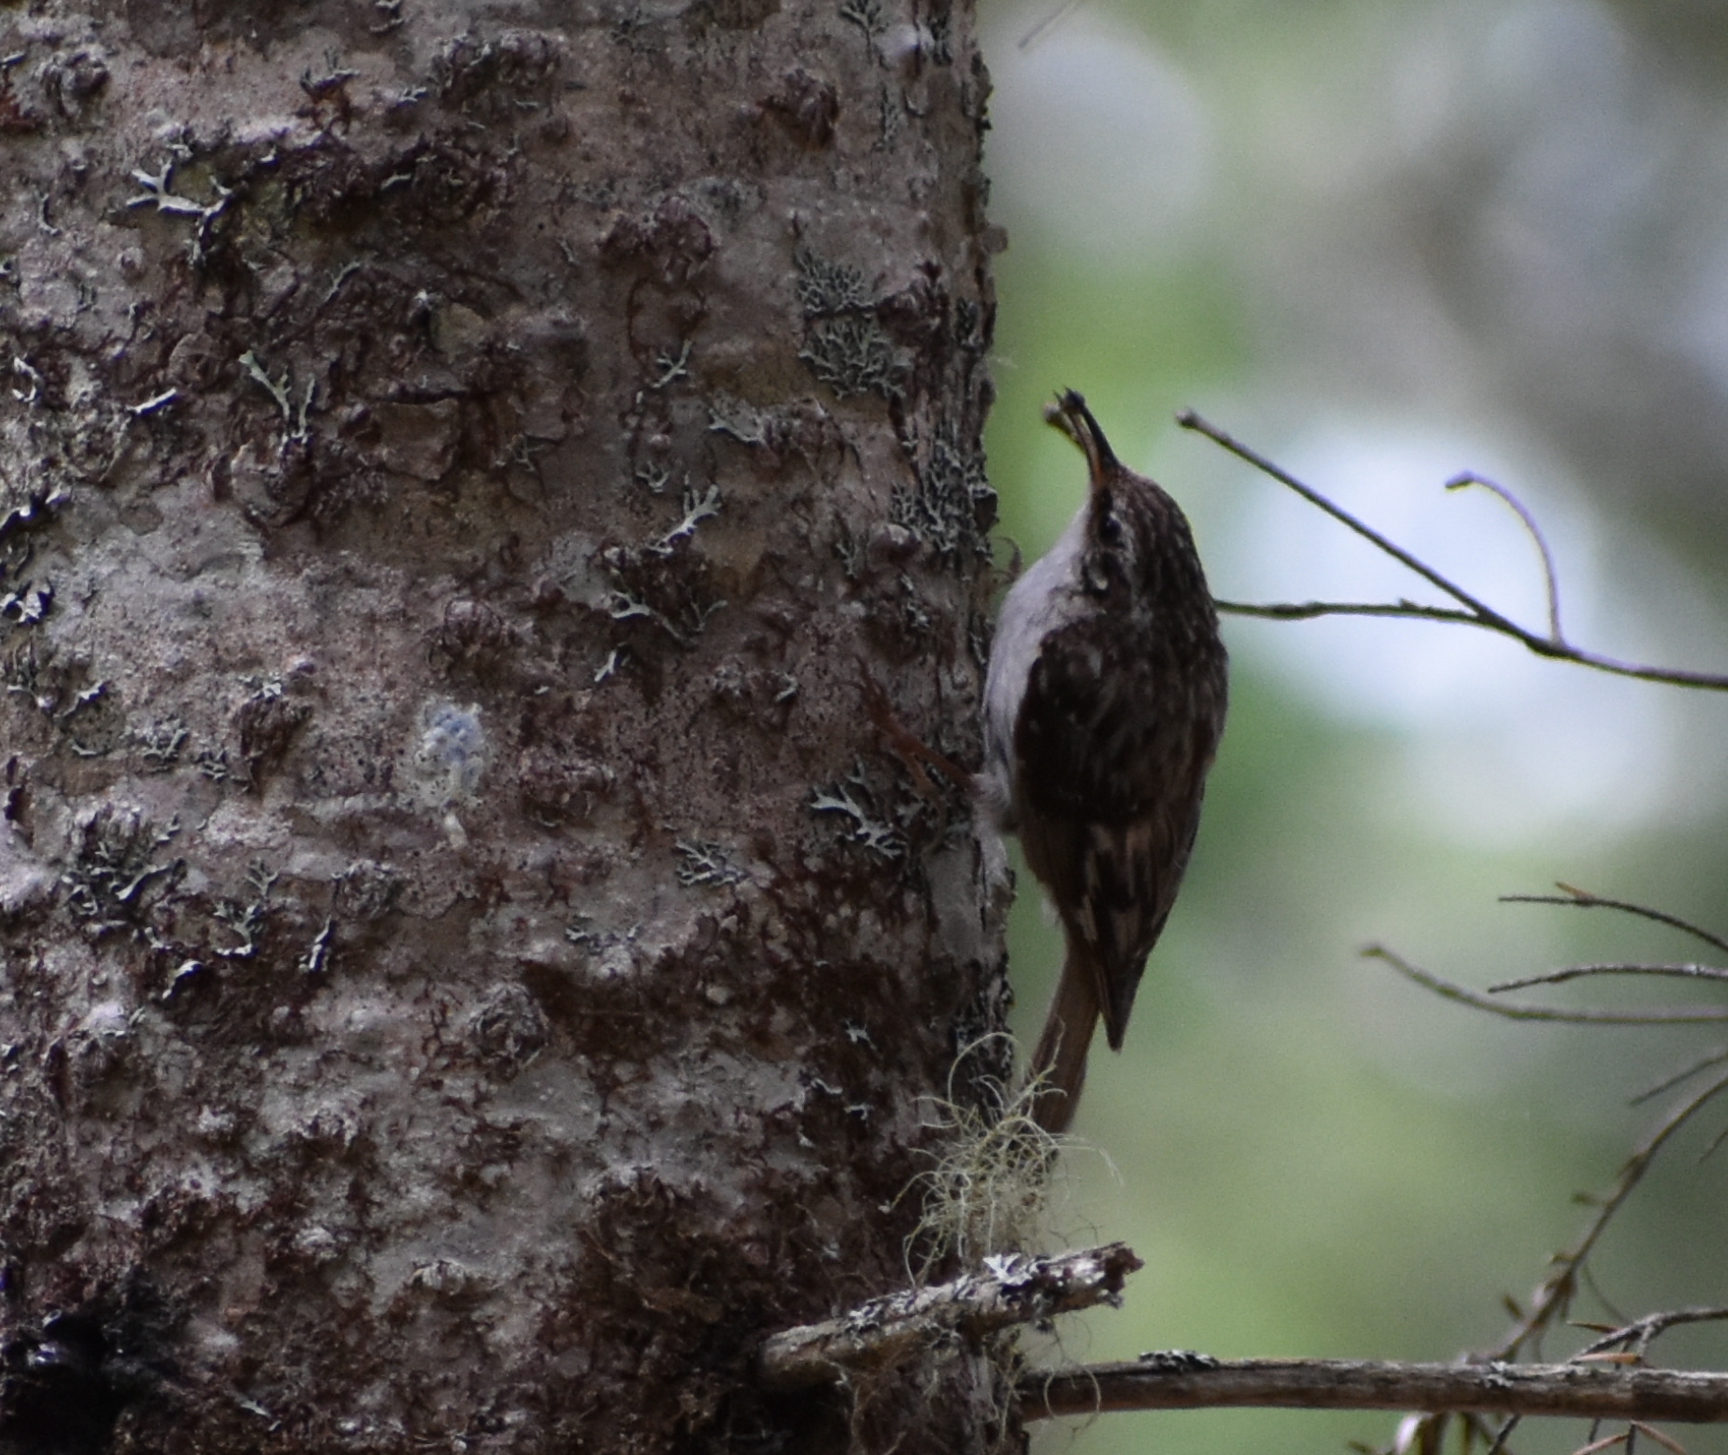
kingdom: Animalia
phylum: Chordata
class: Aves
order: Passeriformes
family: Certhiidae
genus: Certhia
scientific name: Certhia americana
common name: Brown creeper
